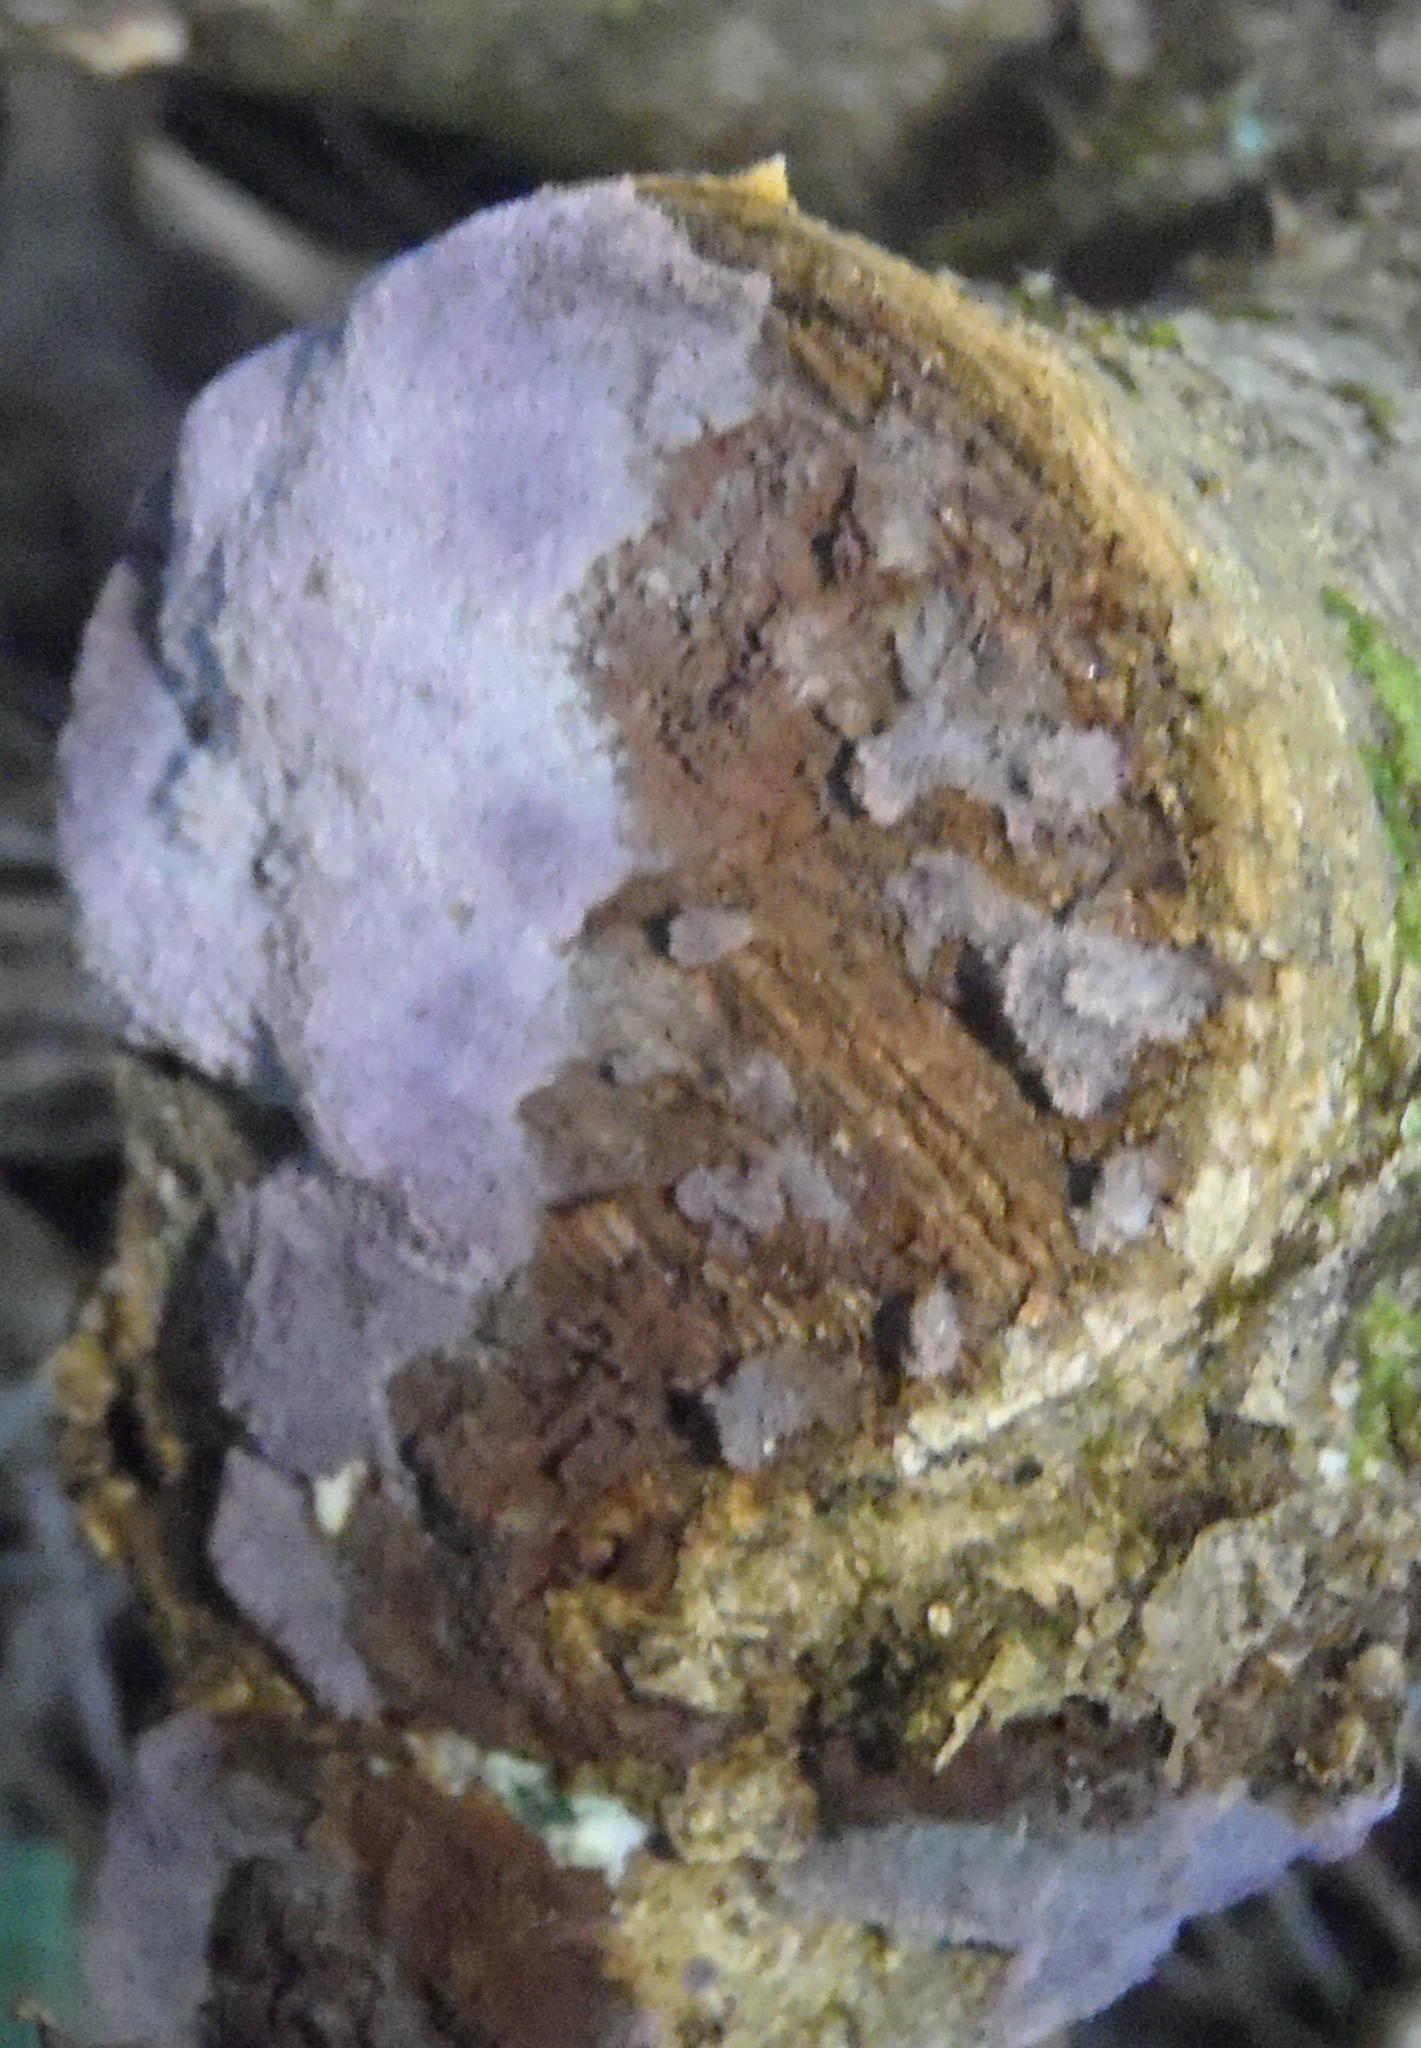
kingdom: Fungi
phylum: Basidiomycota
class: Agaricomycetes
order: Agaricales
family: Cyphellaceae
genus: Chondrostereum
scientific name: Chondrostereum purpureum
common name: Silver leaf disease
